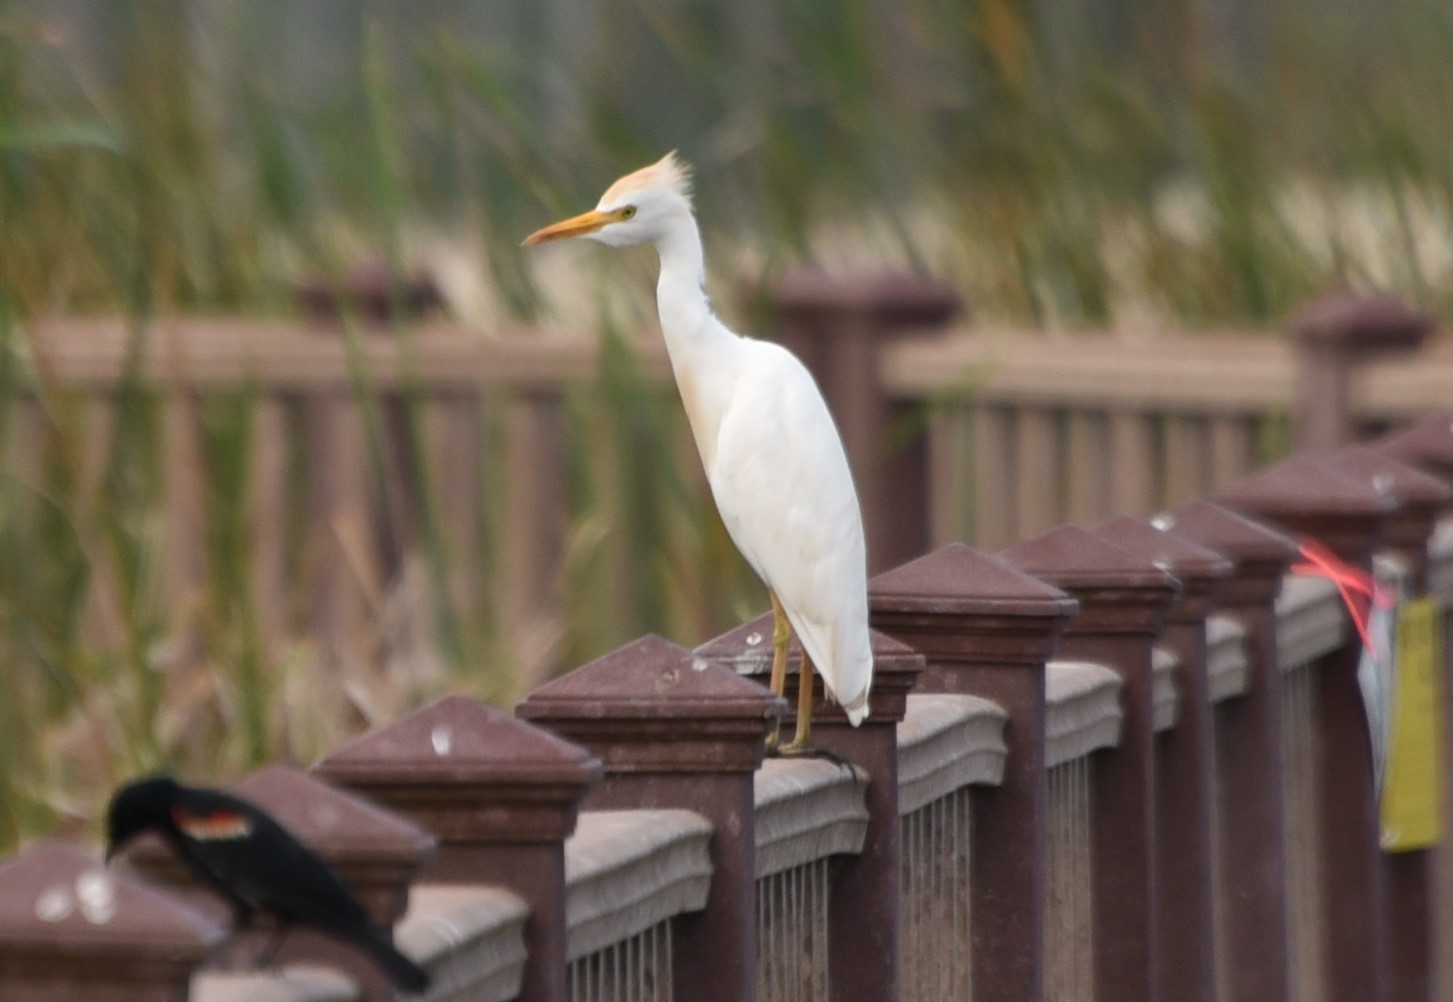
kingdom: Animalia
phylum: Chordata
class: Aves
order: Pelecaniformes
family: Ardeidae
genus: Bubulcus
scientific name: Bubulcus ibis
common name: Cattle egret
